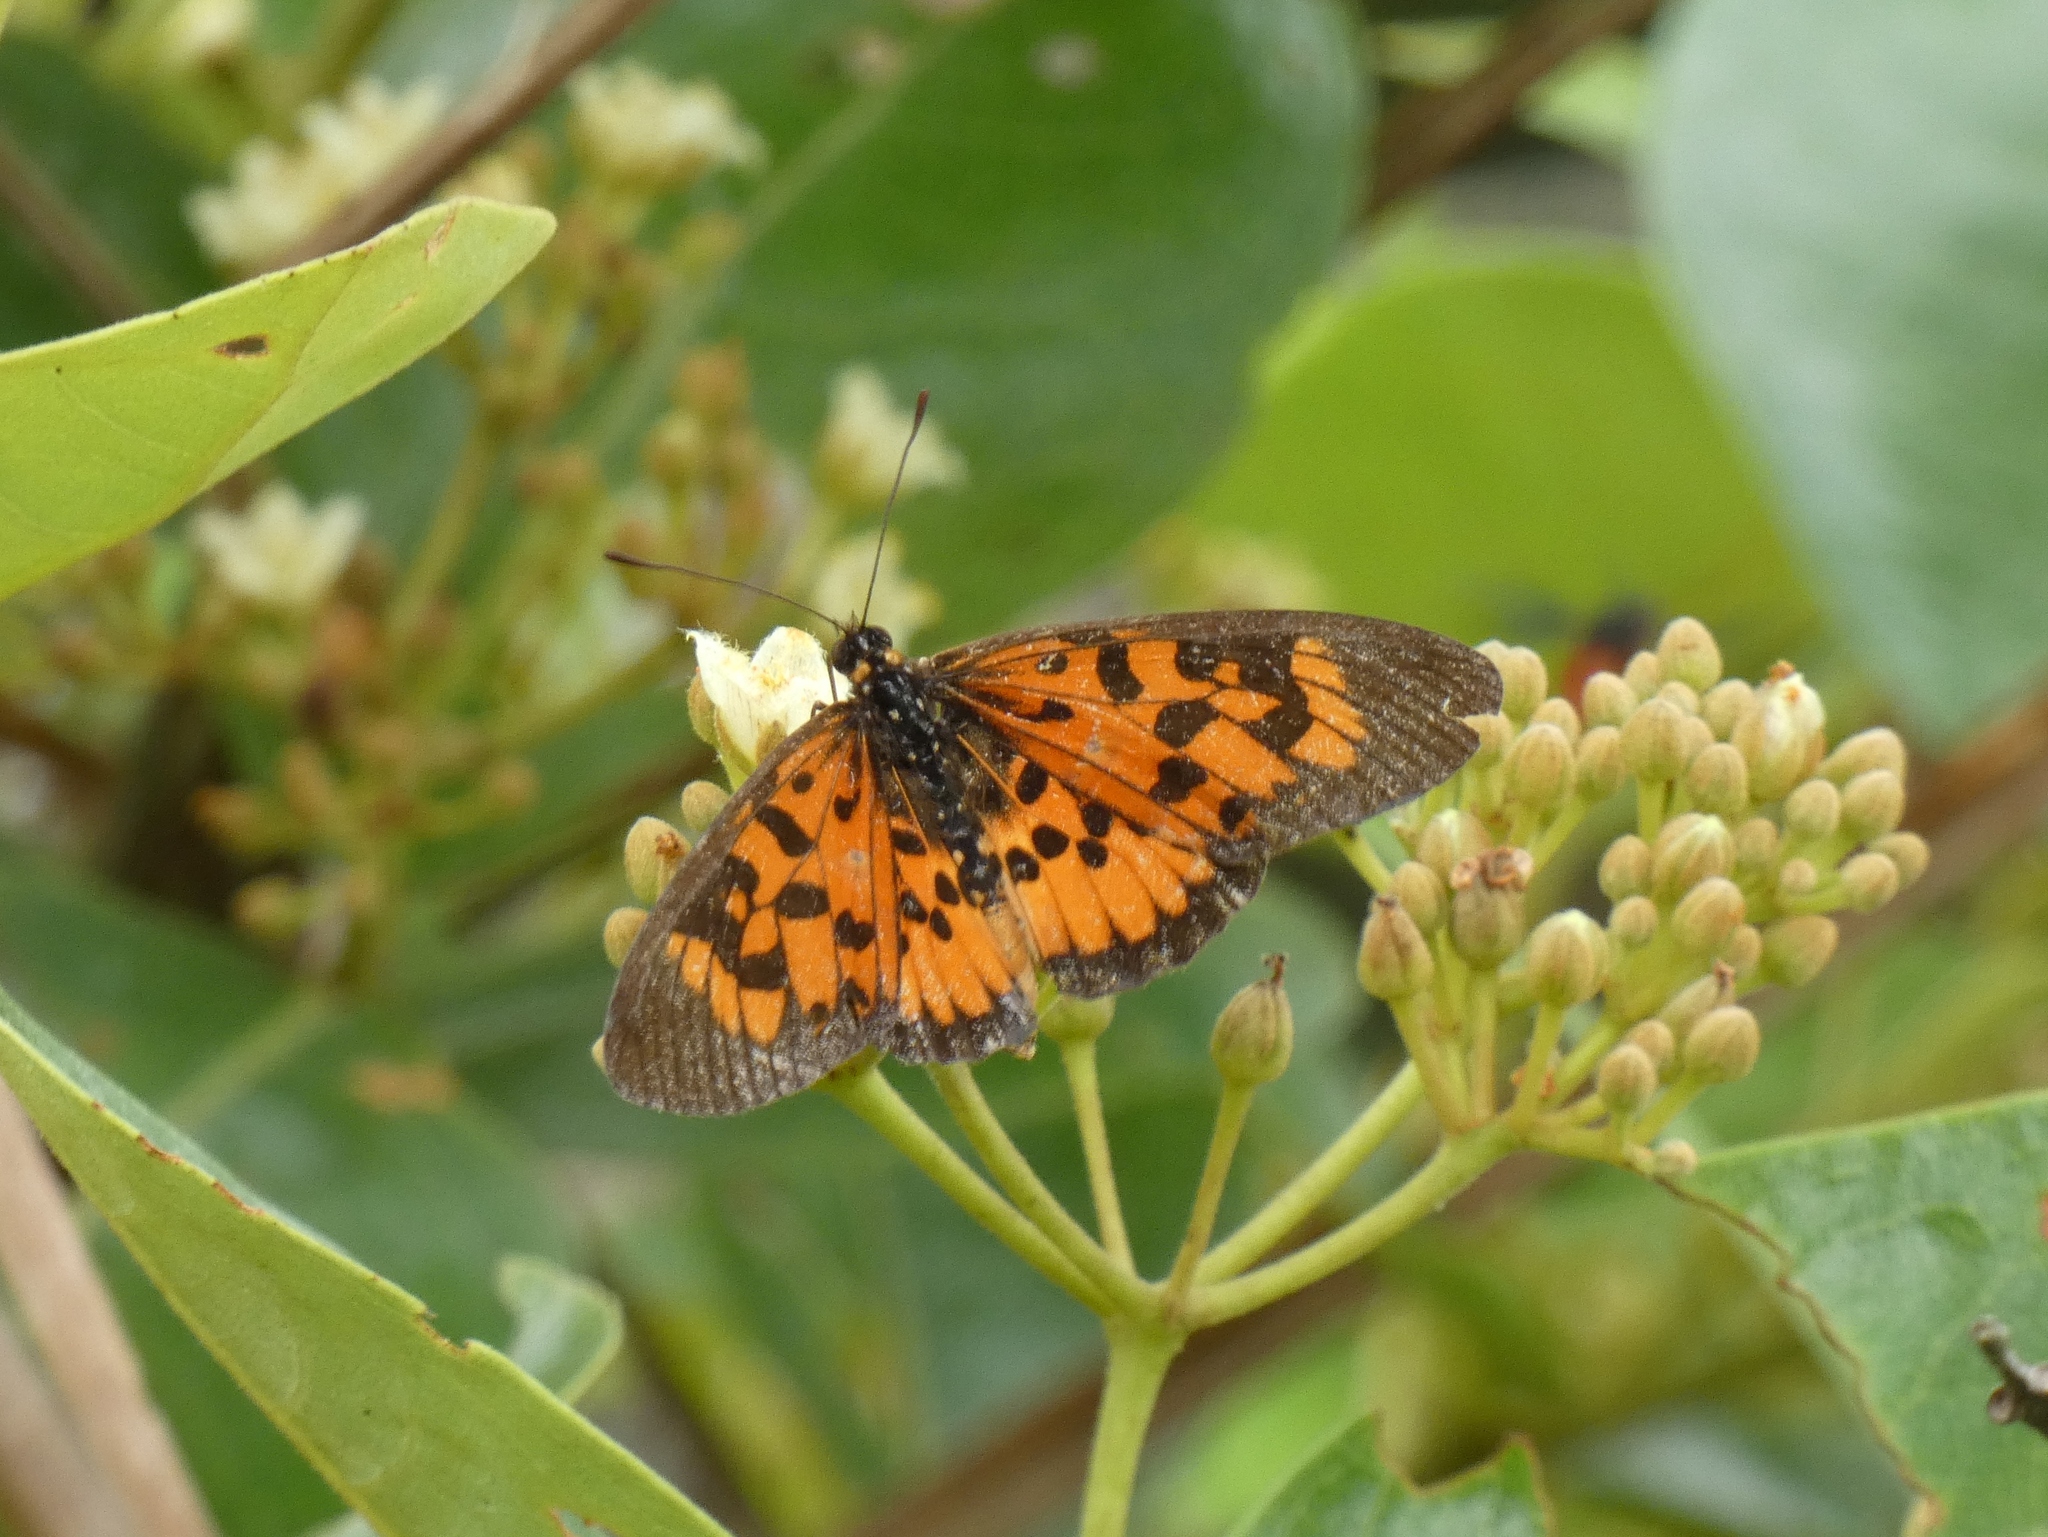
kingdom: Animalia
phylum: Arthropoda
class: Insecta
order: Lepidoptera
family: Nymphalidae
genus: Rubraea
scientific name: Rubraea
